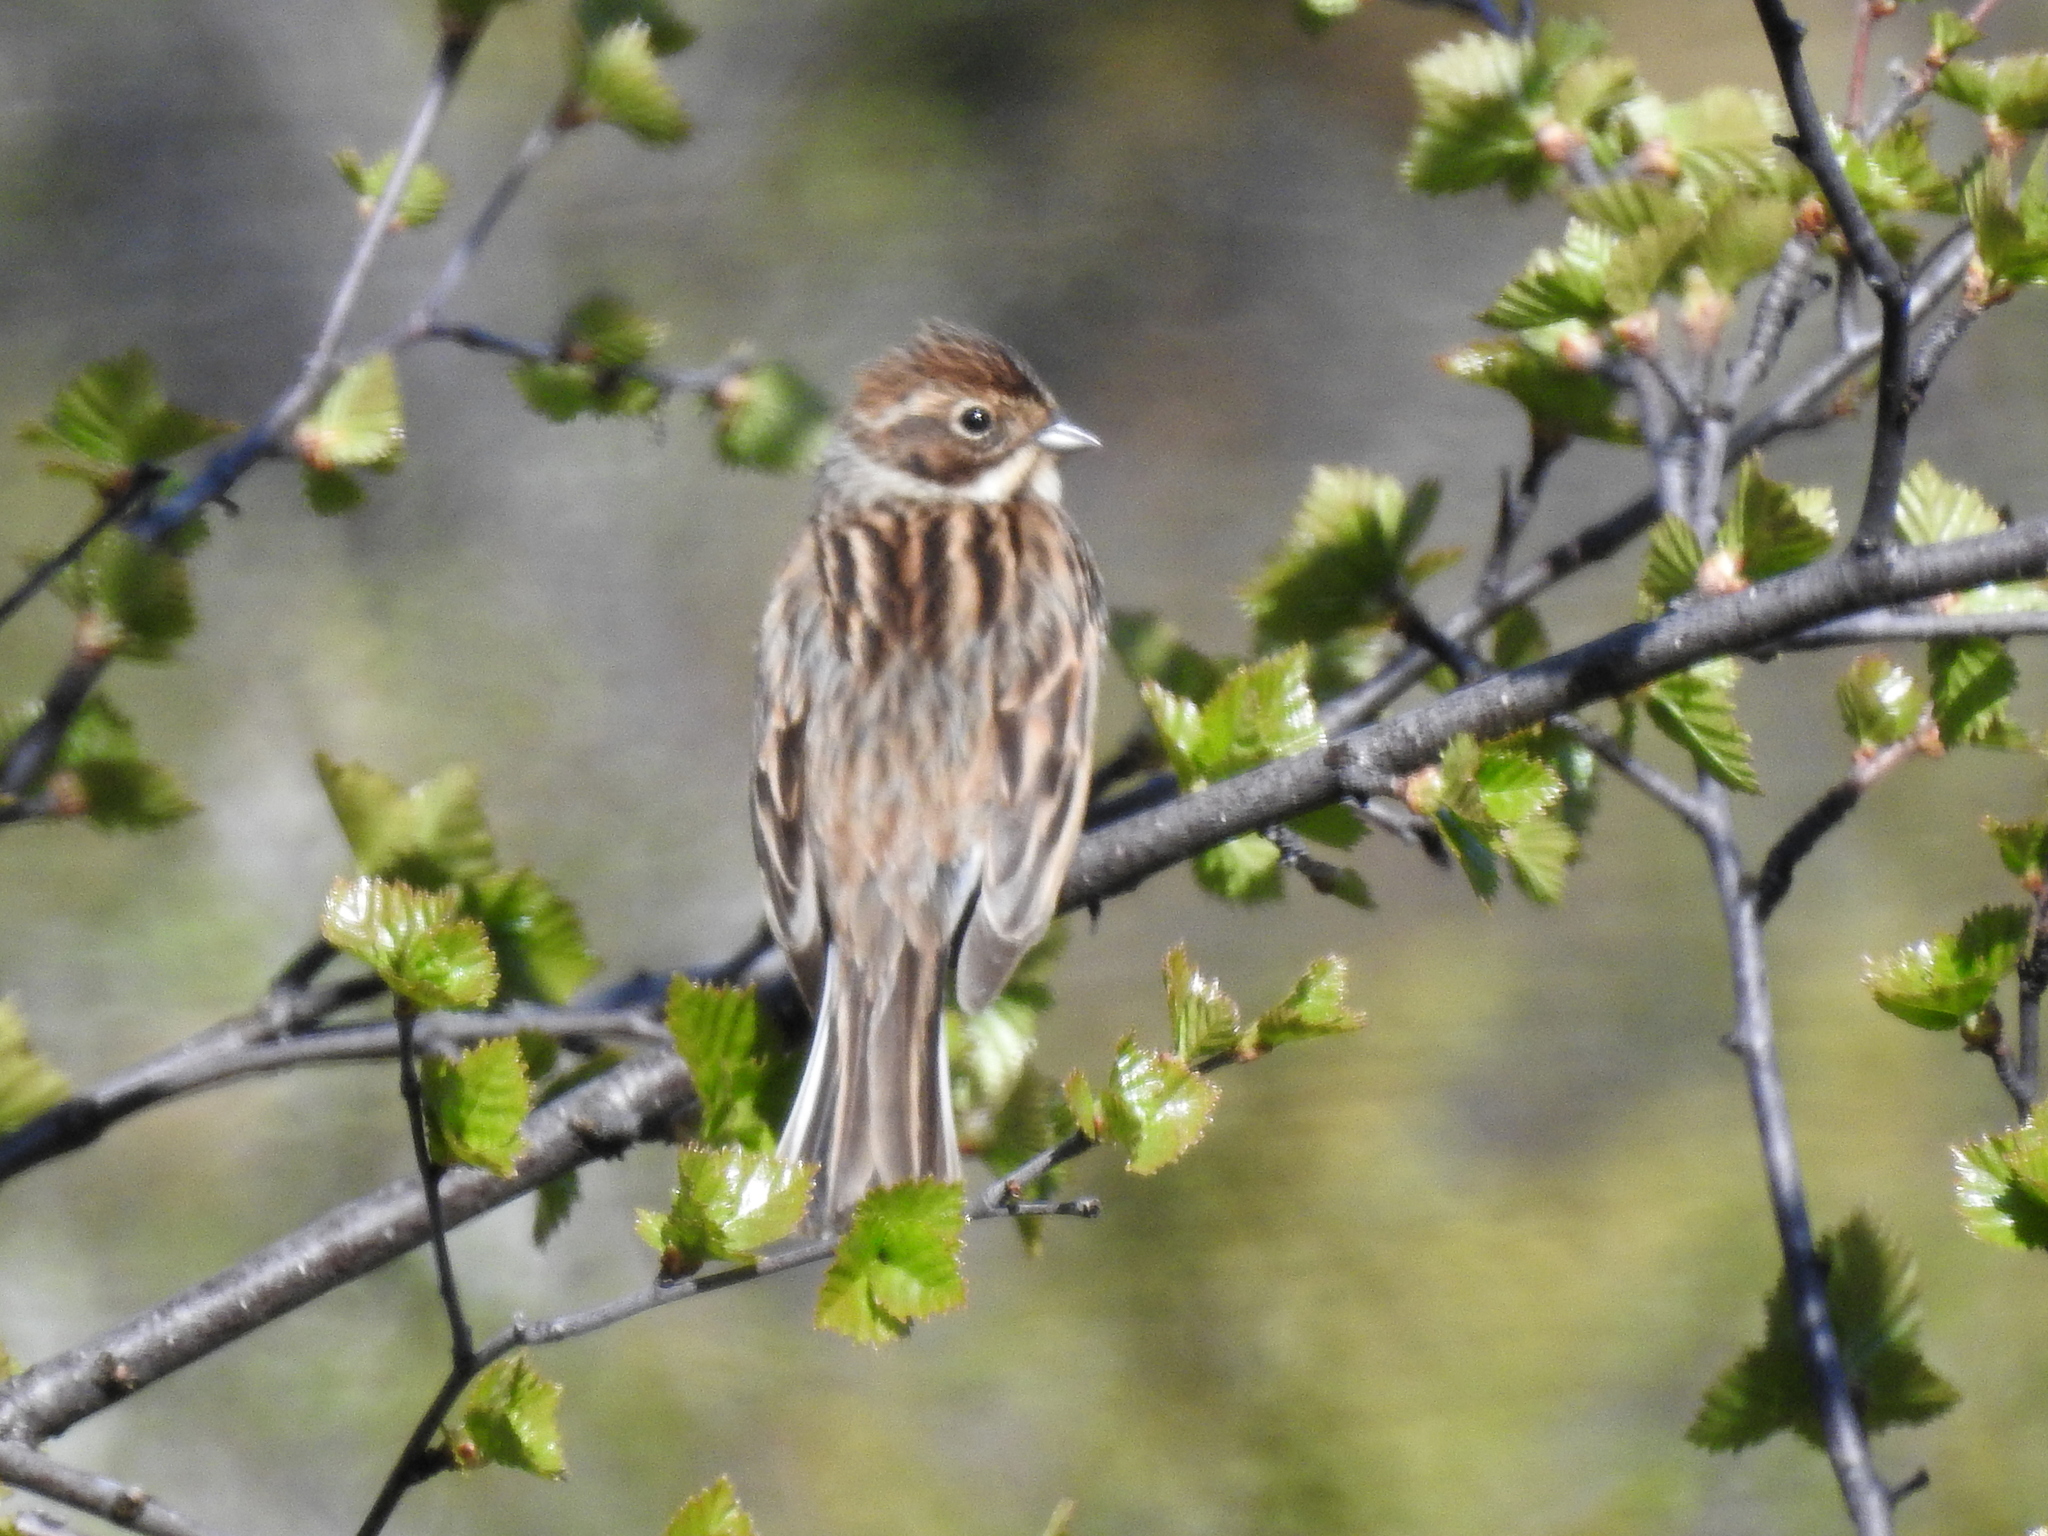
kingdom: Animalia
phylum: Chordata
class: Aves
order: Passeriformes
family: Emberizidae
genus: Emberiza
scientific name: Emberiza schoeniclus
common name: Reed bunting
